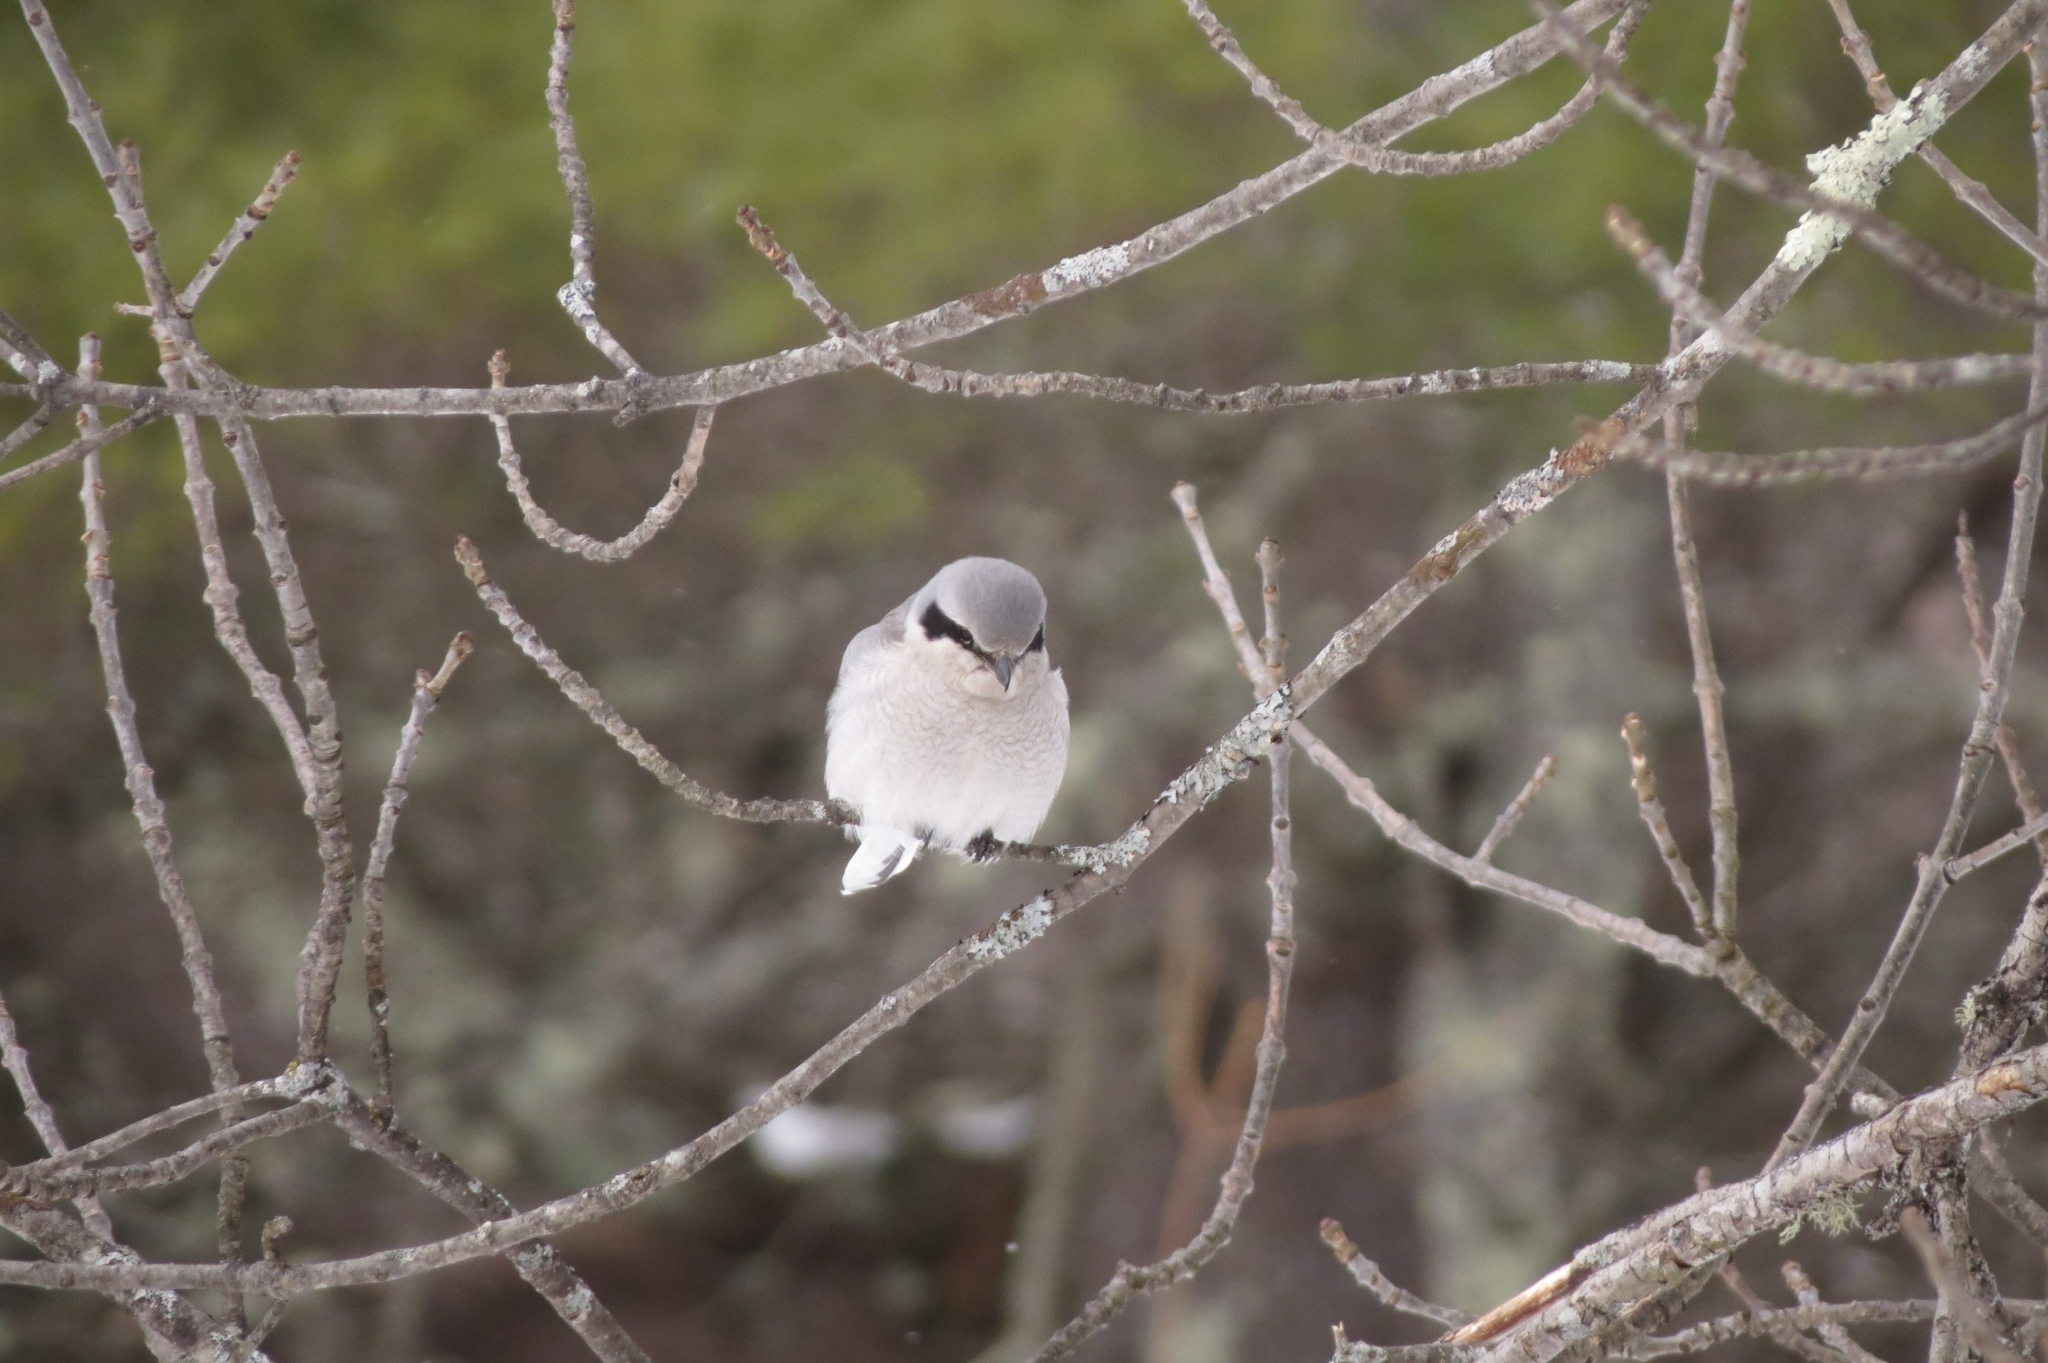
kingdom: Animalia
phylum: Chordata
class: Aves
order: Passeriformes
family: Laniidae
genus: Lanius
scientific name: Lanius borealis
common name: Northern shrike
